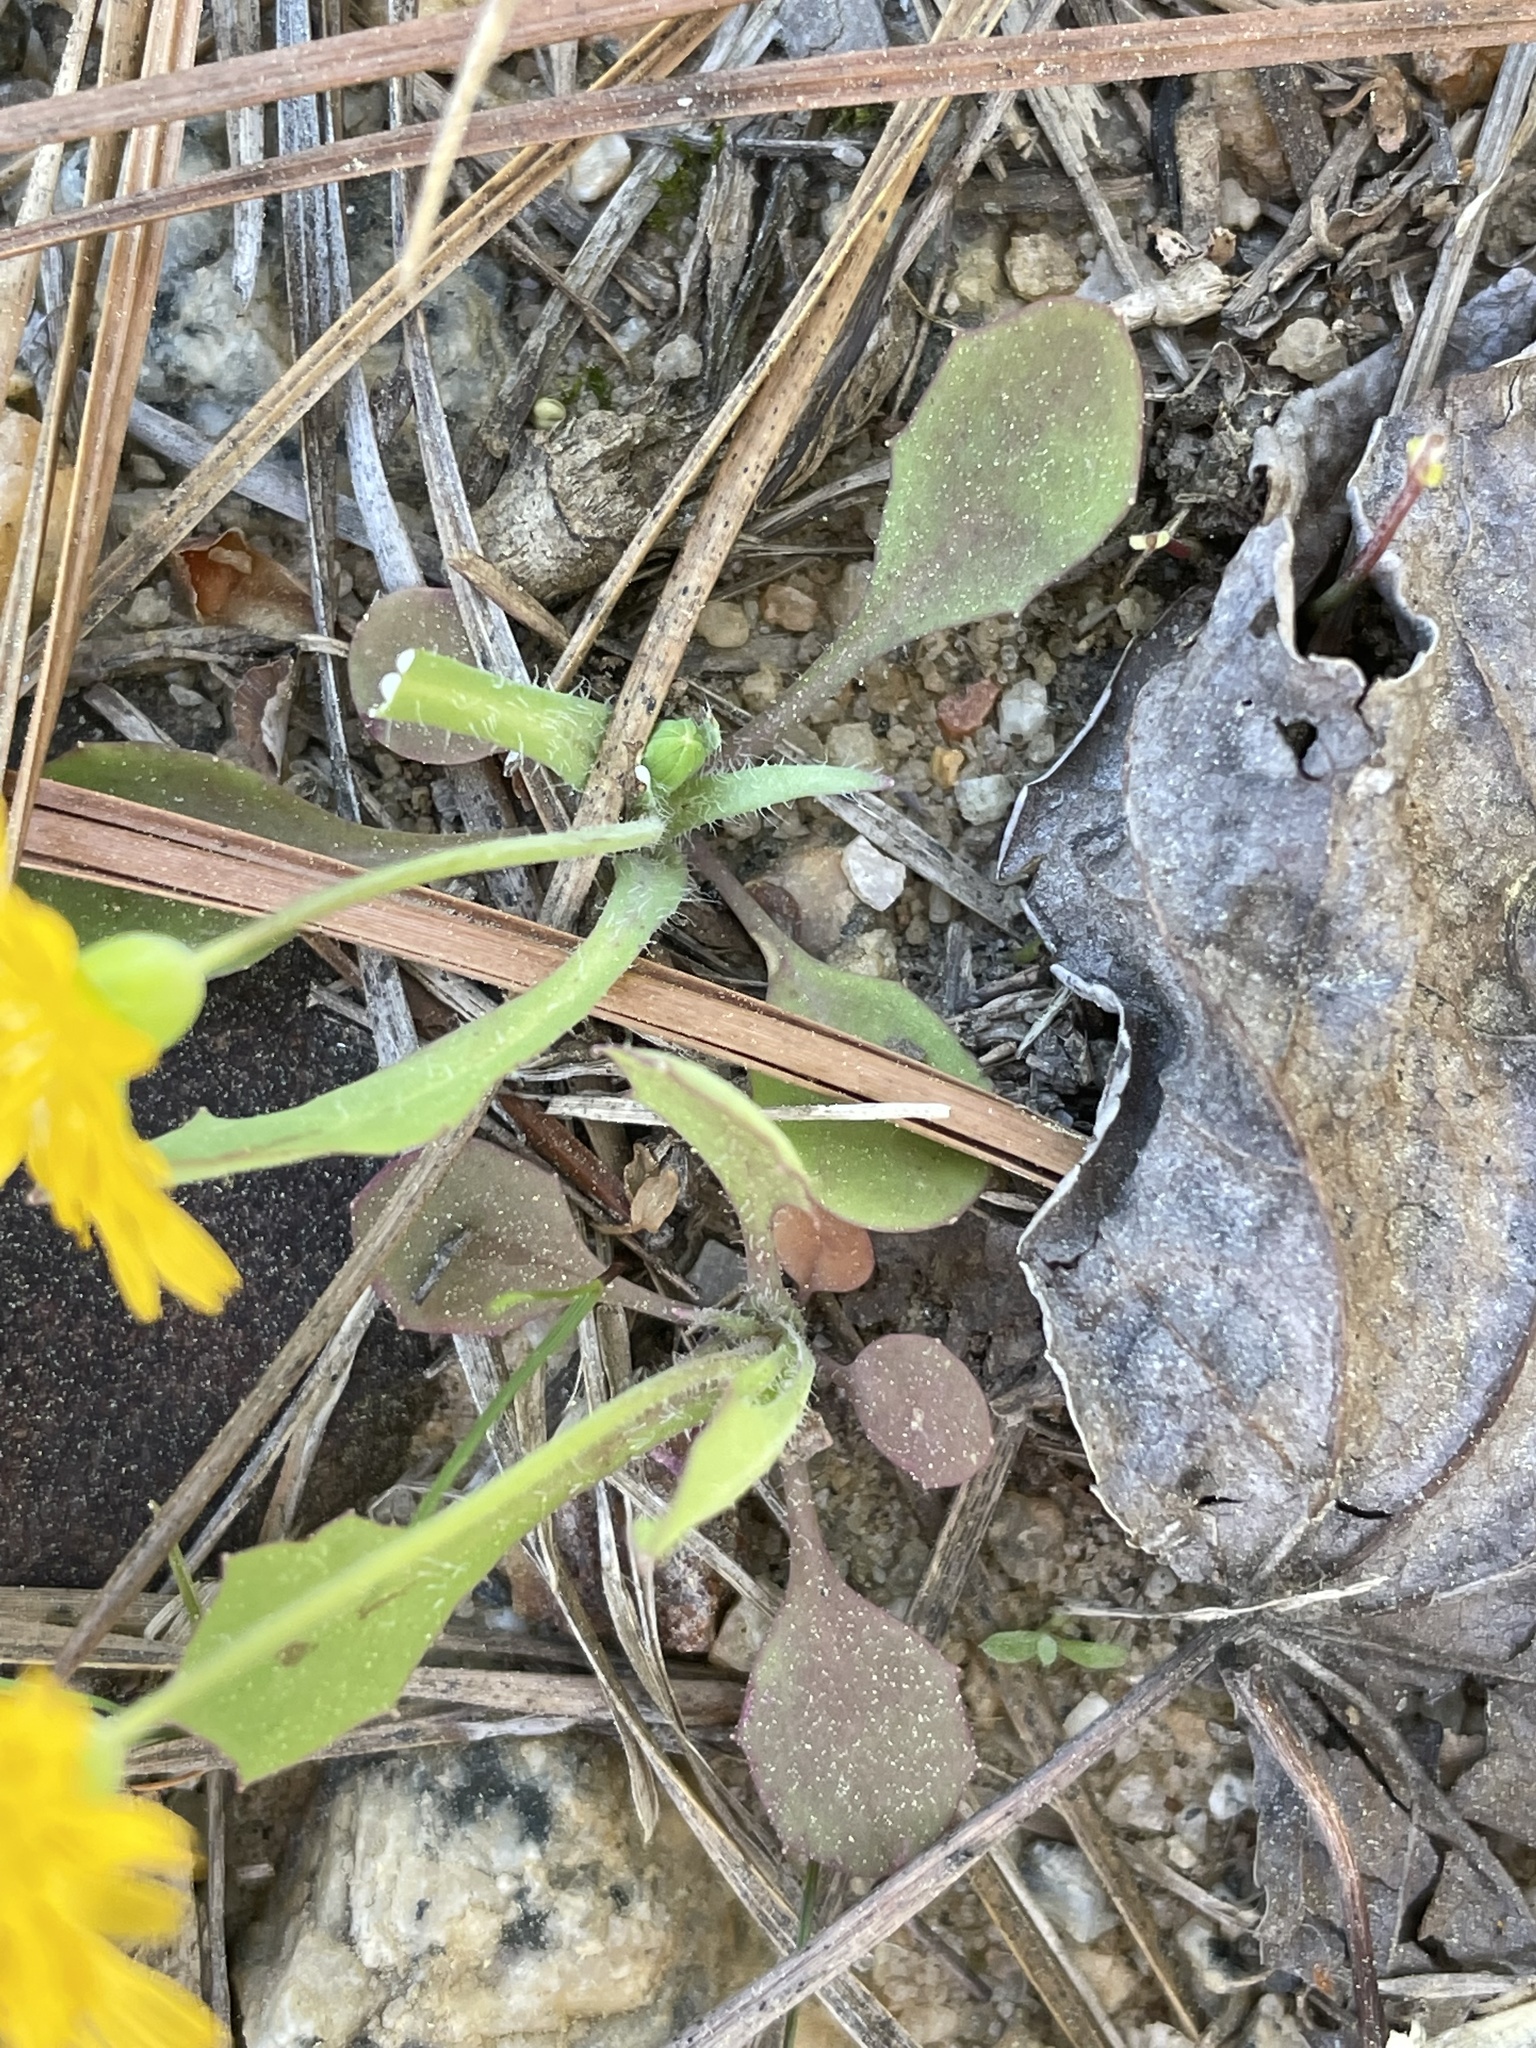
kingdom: Plantae
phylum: Tracheophyta
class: Magnoliopsida
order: Asterales
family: Asteraceae
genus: Krigia
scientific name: Krigia virginica
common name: Virginia dwarf-dandelion
